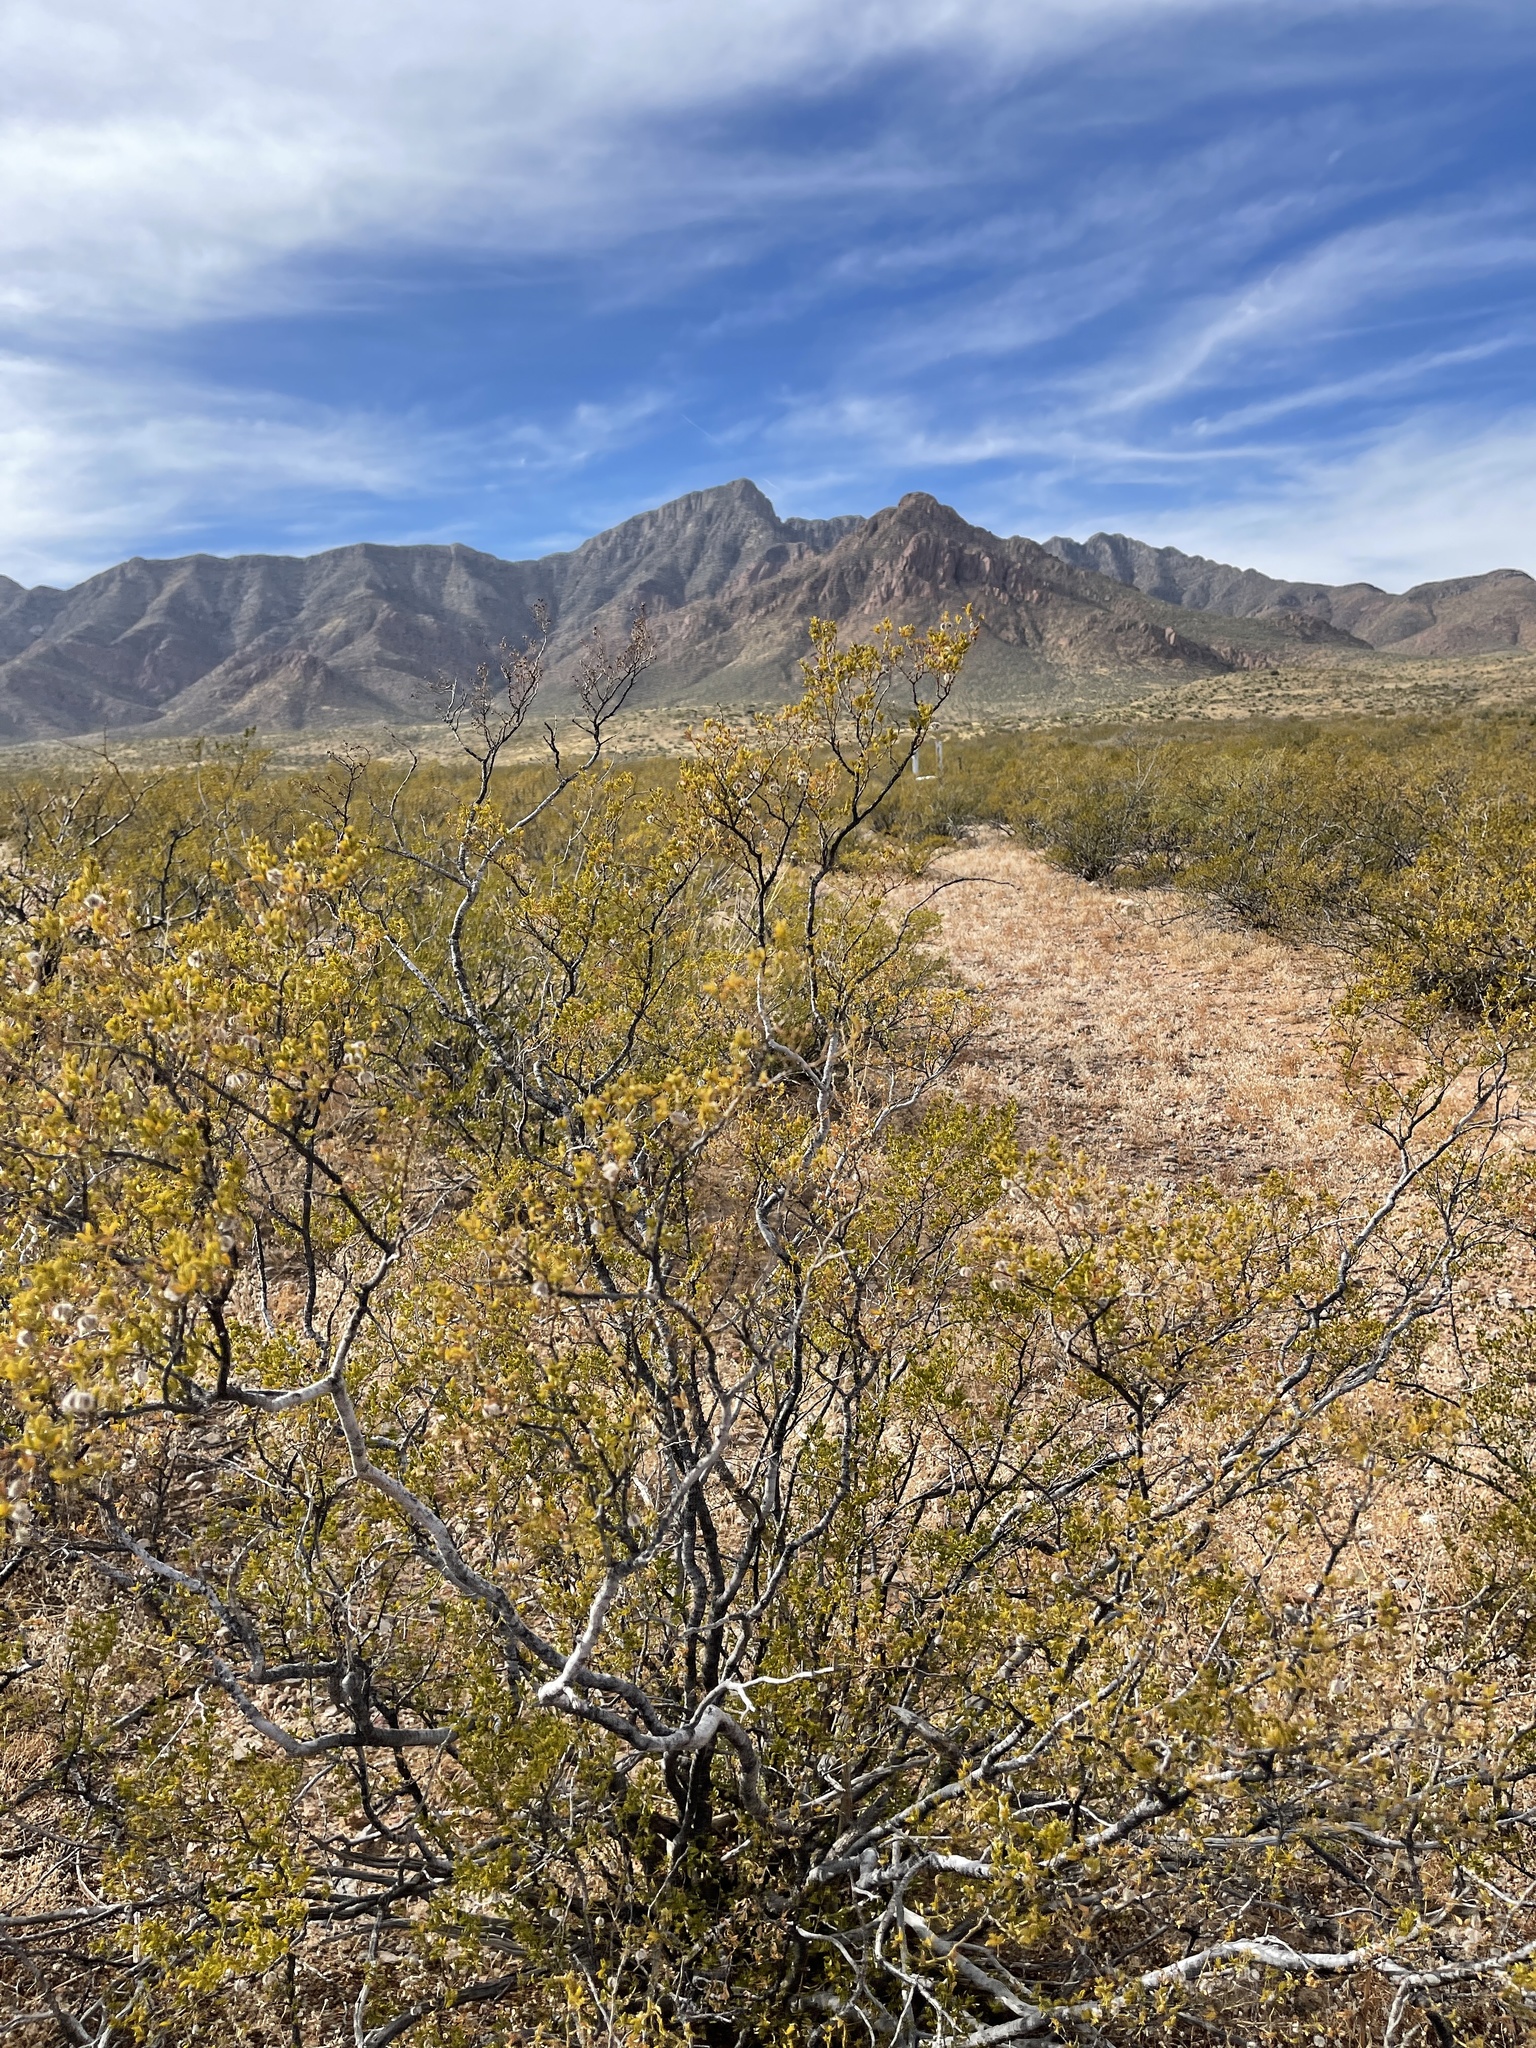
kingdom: Plantae
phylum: Tracheophyta
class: Magnoliopsida
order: Zygophyllales
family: Zygophyllaceae
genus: Larrea
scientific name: Larrea tridentata
